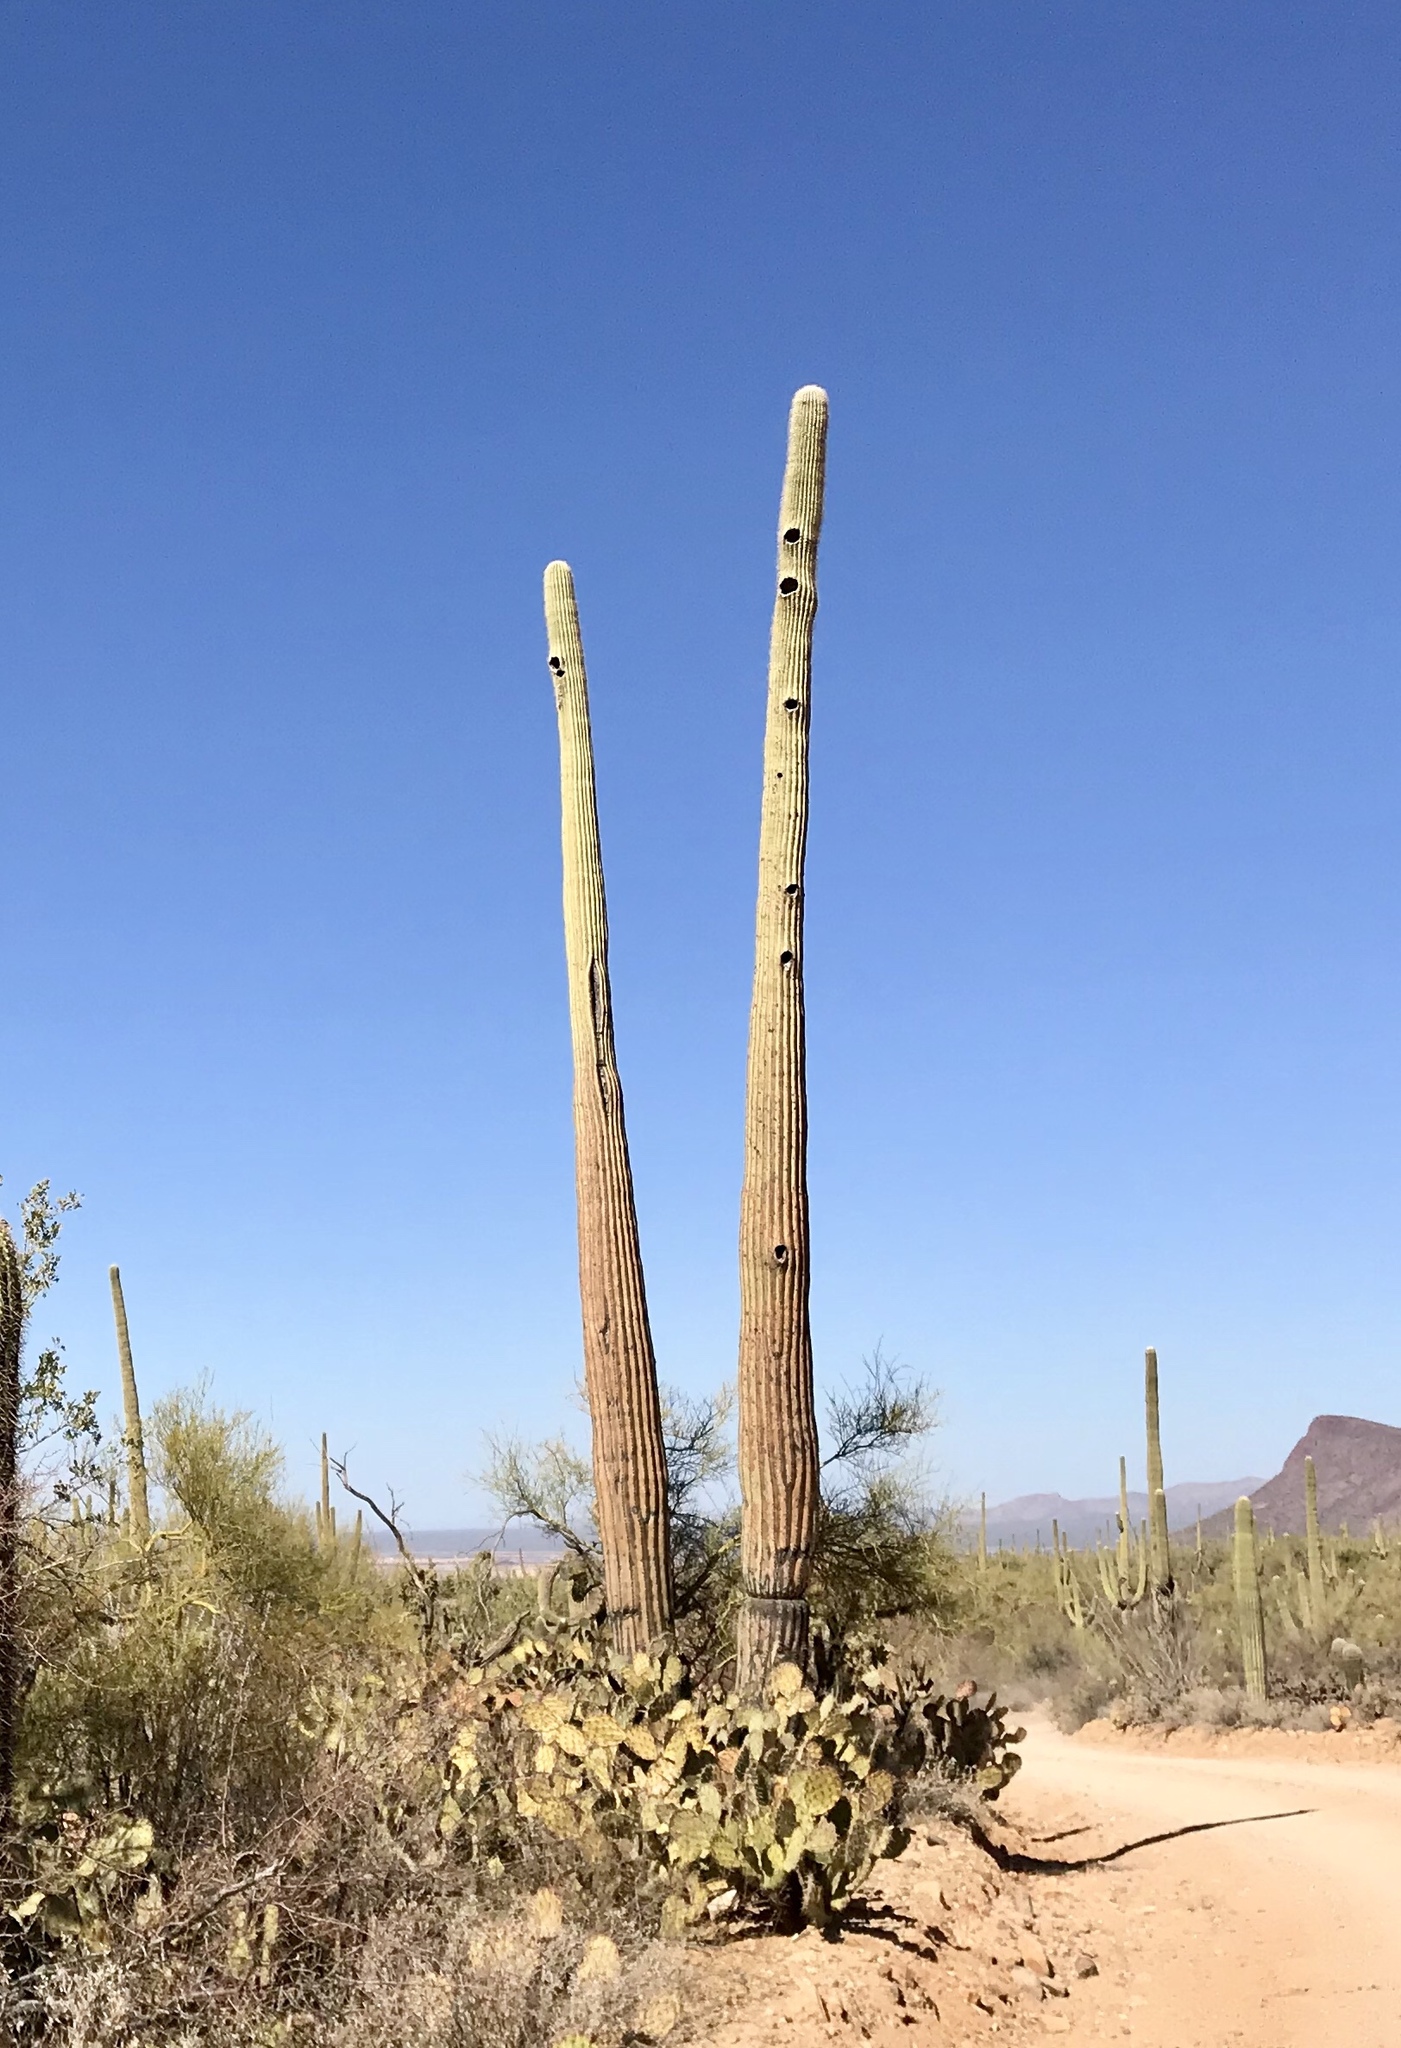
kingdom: Plantae
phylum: Tracheophyta
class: Magnoliopsida
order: Caryophyllales
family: Cactaceae
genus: Carnegiea
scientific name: Carnegiea gigantea
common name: Saguaro
